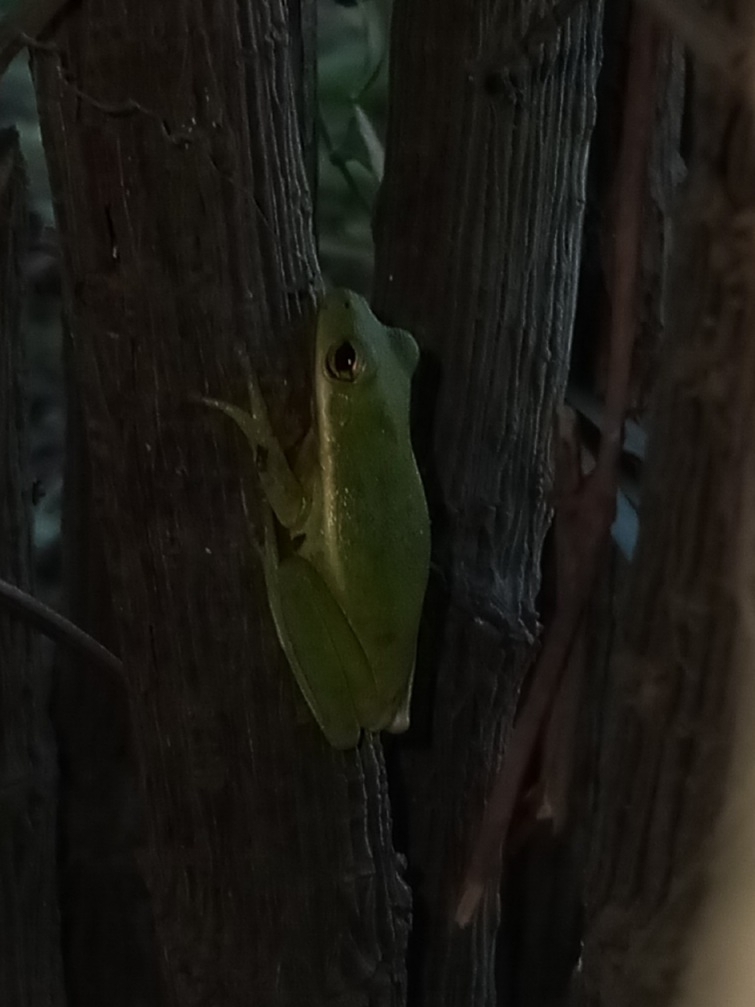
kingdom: Animalia
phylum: Chordata
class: Amphibia
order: Anura
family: Hylidae
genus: Dryophytes
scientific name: Dryophytes cinereus
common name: Green treefrog
